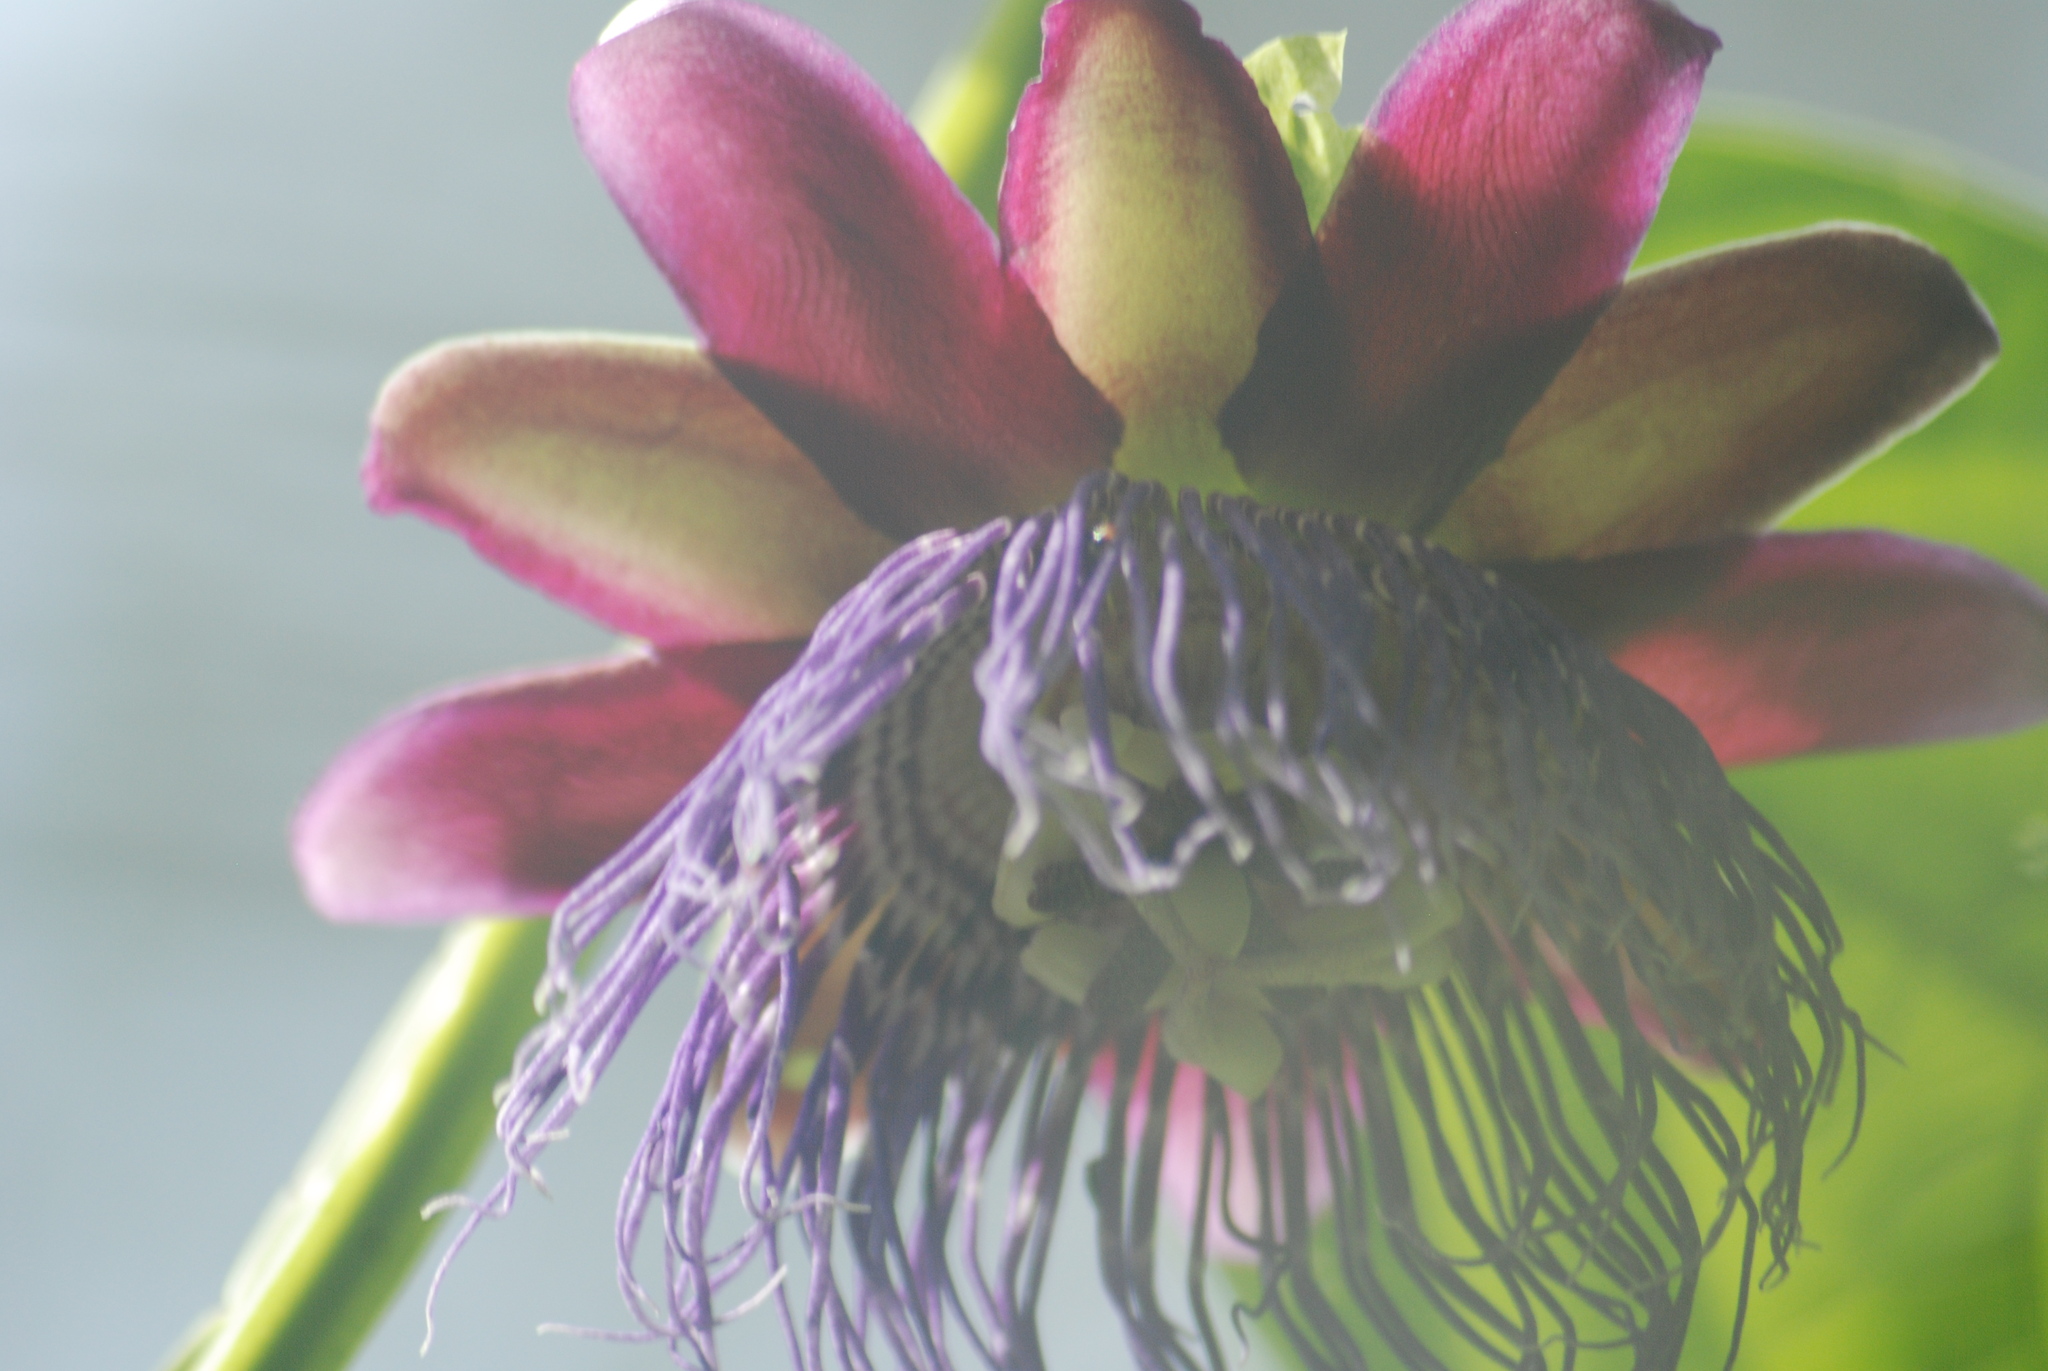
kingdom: Plantae
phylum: Tracheophyta
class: Magnoliopsida
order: Malpighiales
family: Passifloraceae
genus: Passiflora
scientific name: Passiflora quadrangularis
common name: Giant granadilla
